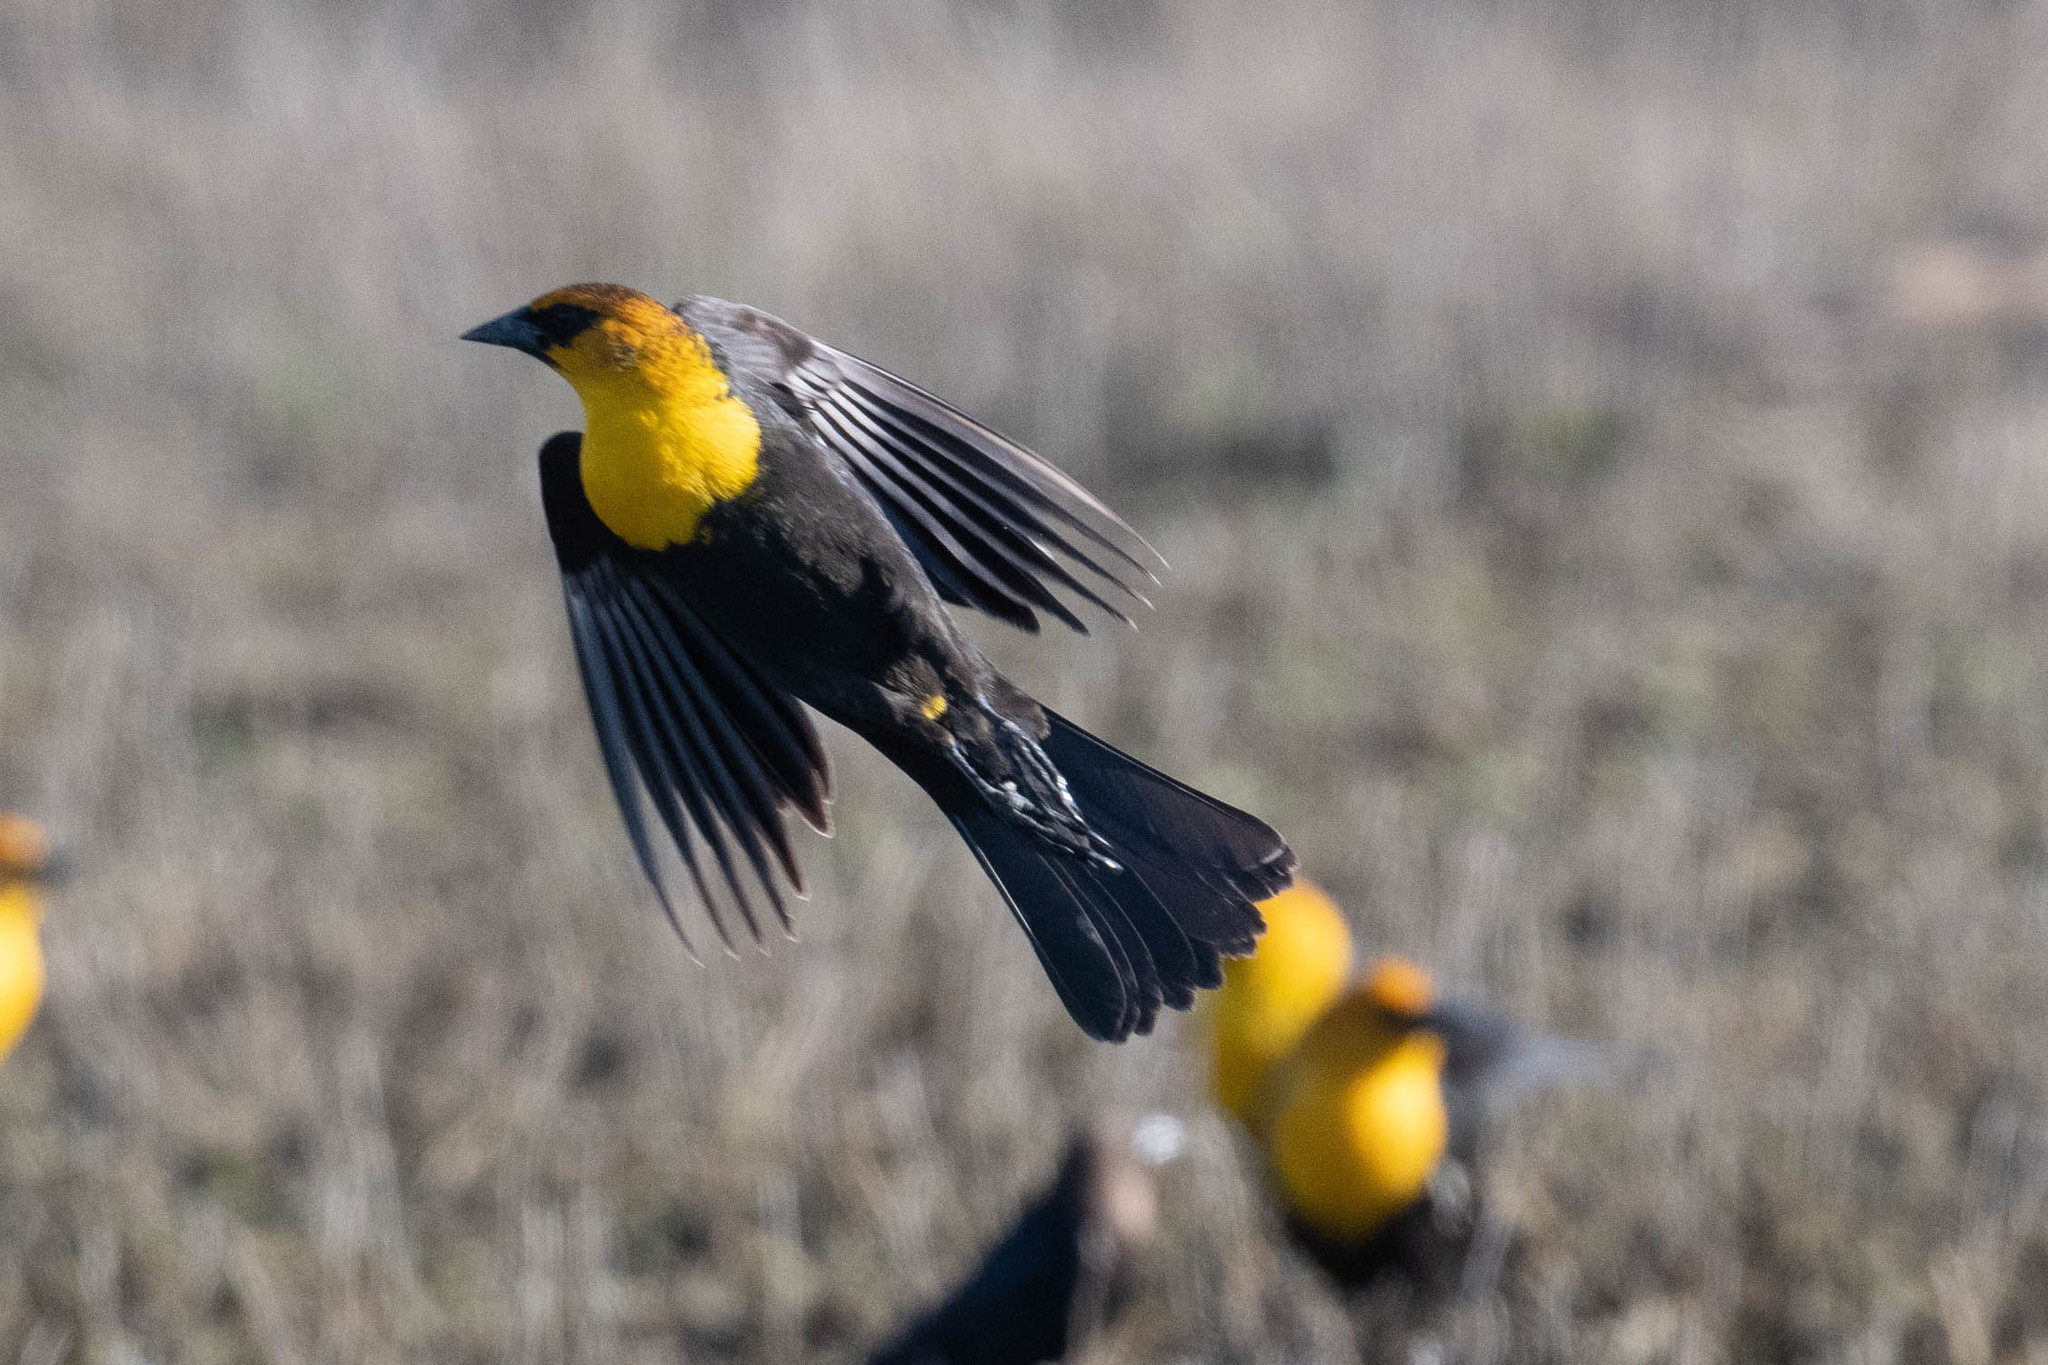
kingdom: Animalia
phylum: Chordata
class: Aves
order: Passeriformes
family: Icteridae
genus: Xanthocephalus
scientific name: Xanthocephalus xanthocephalus
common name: Yellow-headed blackbird
